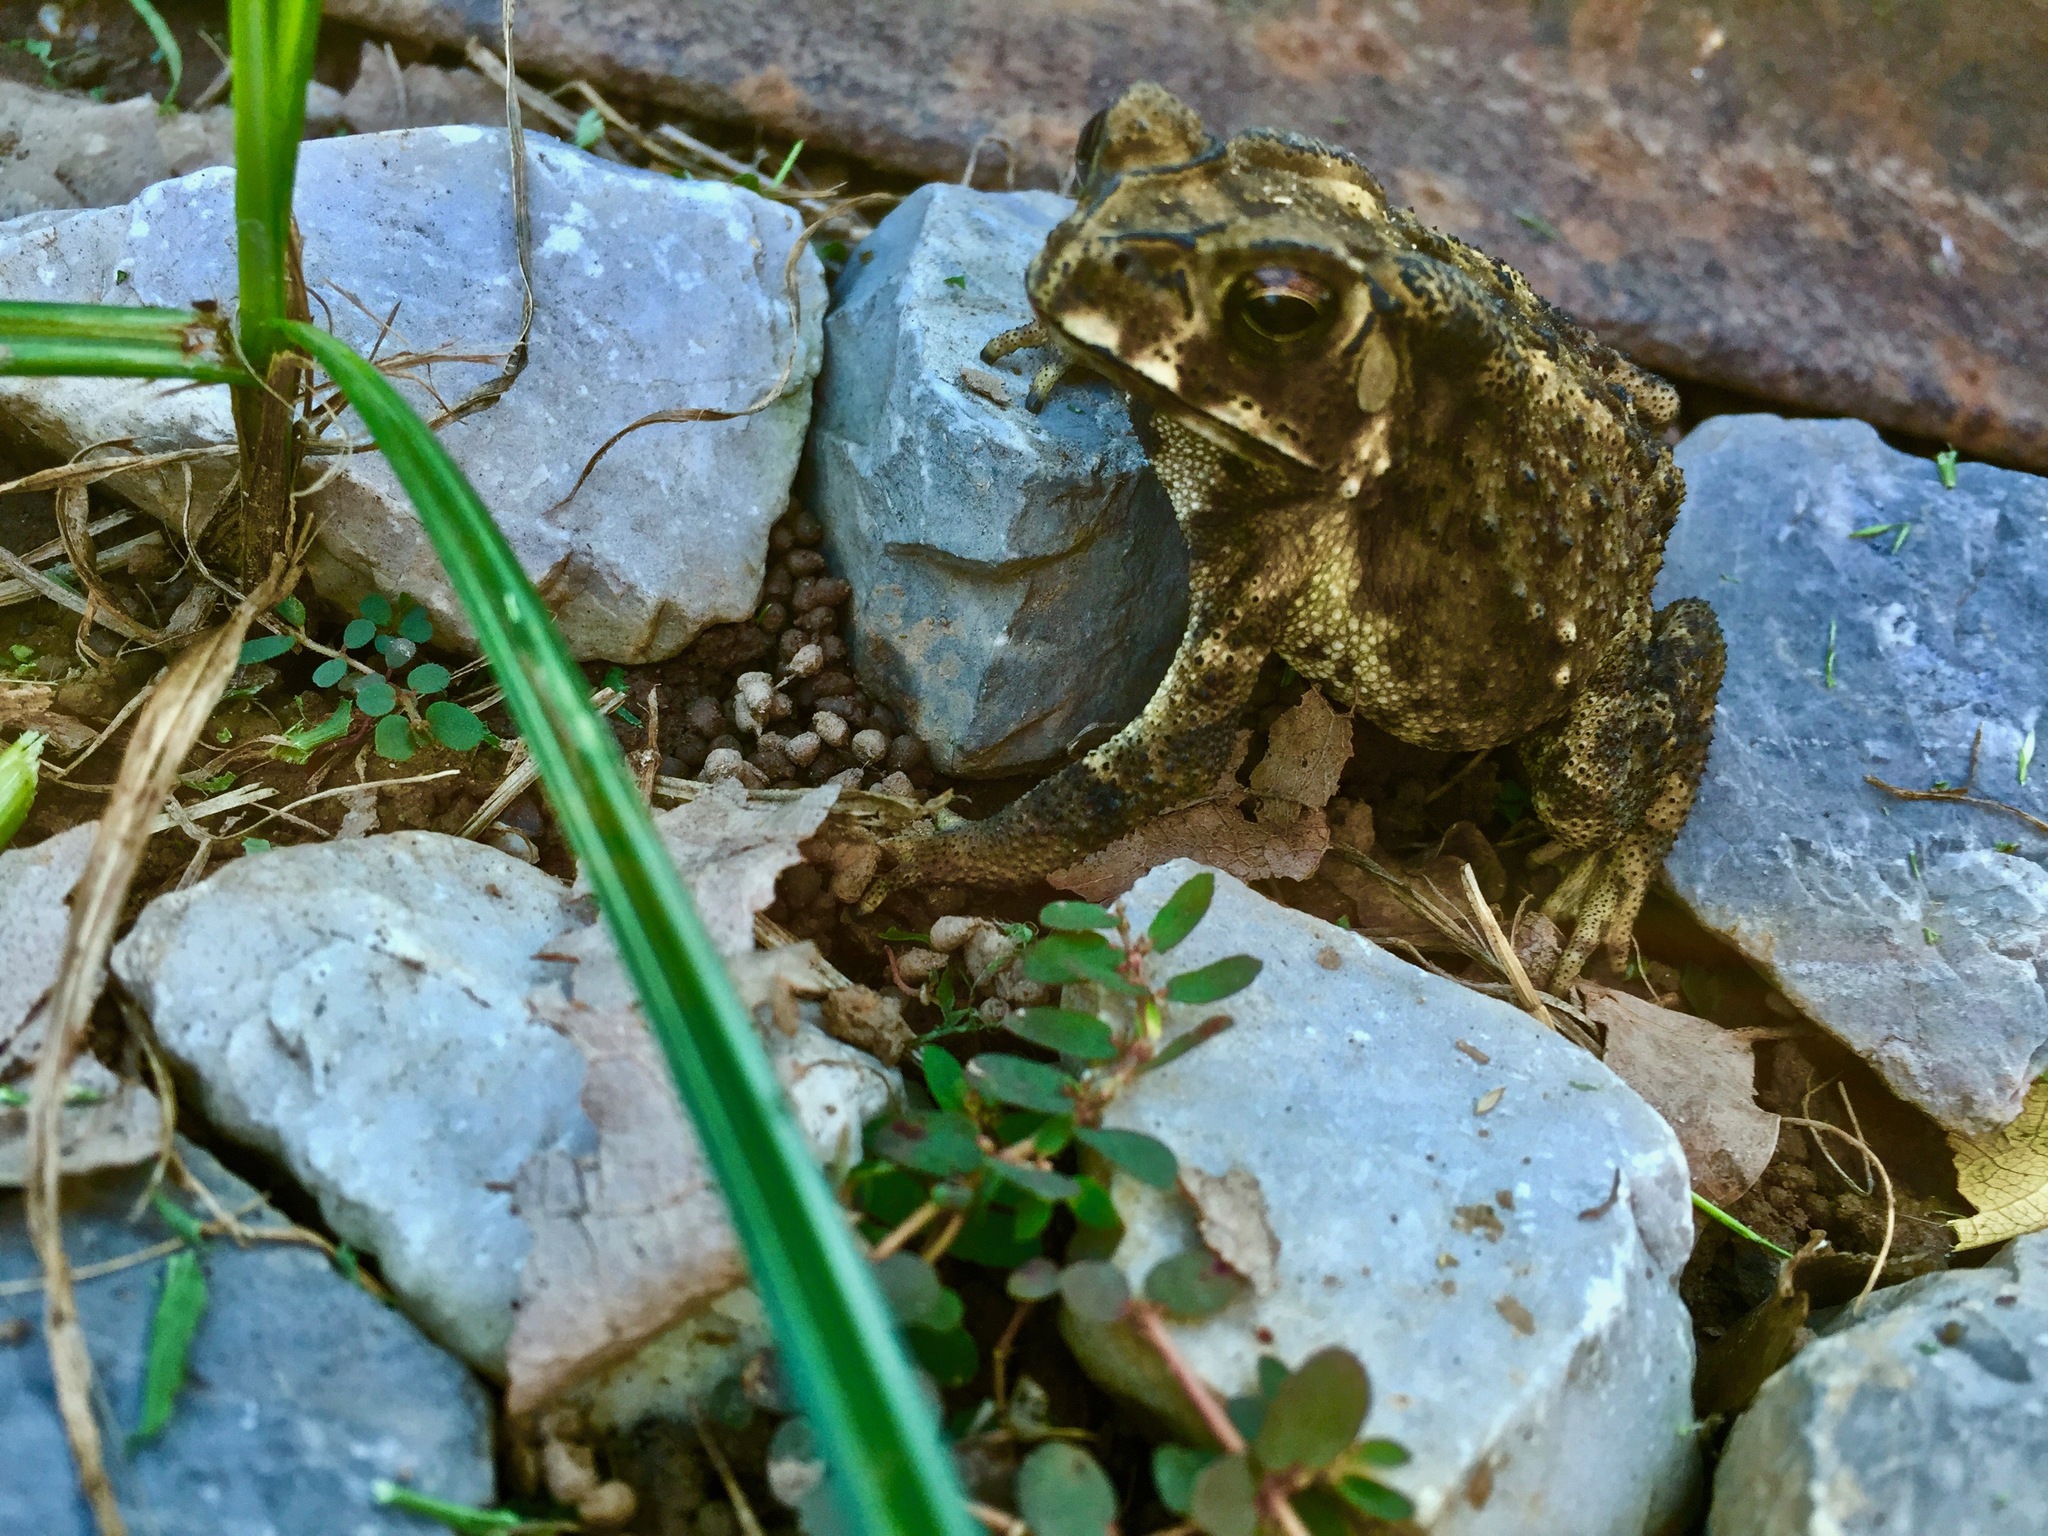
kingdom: Animalia
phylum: Chordata
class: Amphibia
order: Anura
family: Bufonidae
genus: Duttaphrynus
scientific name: Duttaphrynus melanostictus
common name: Common sunda toad
